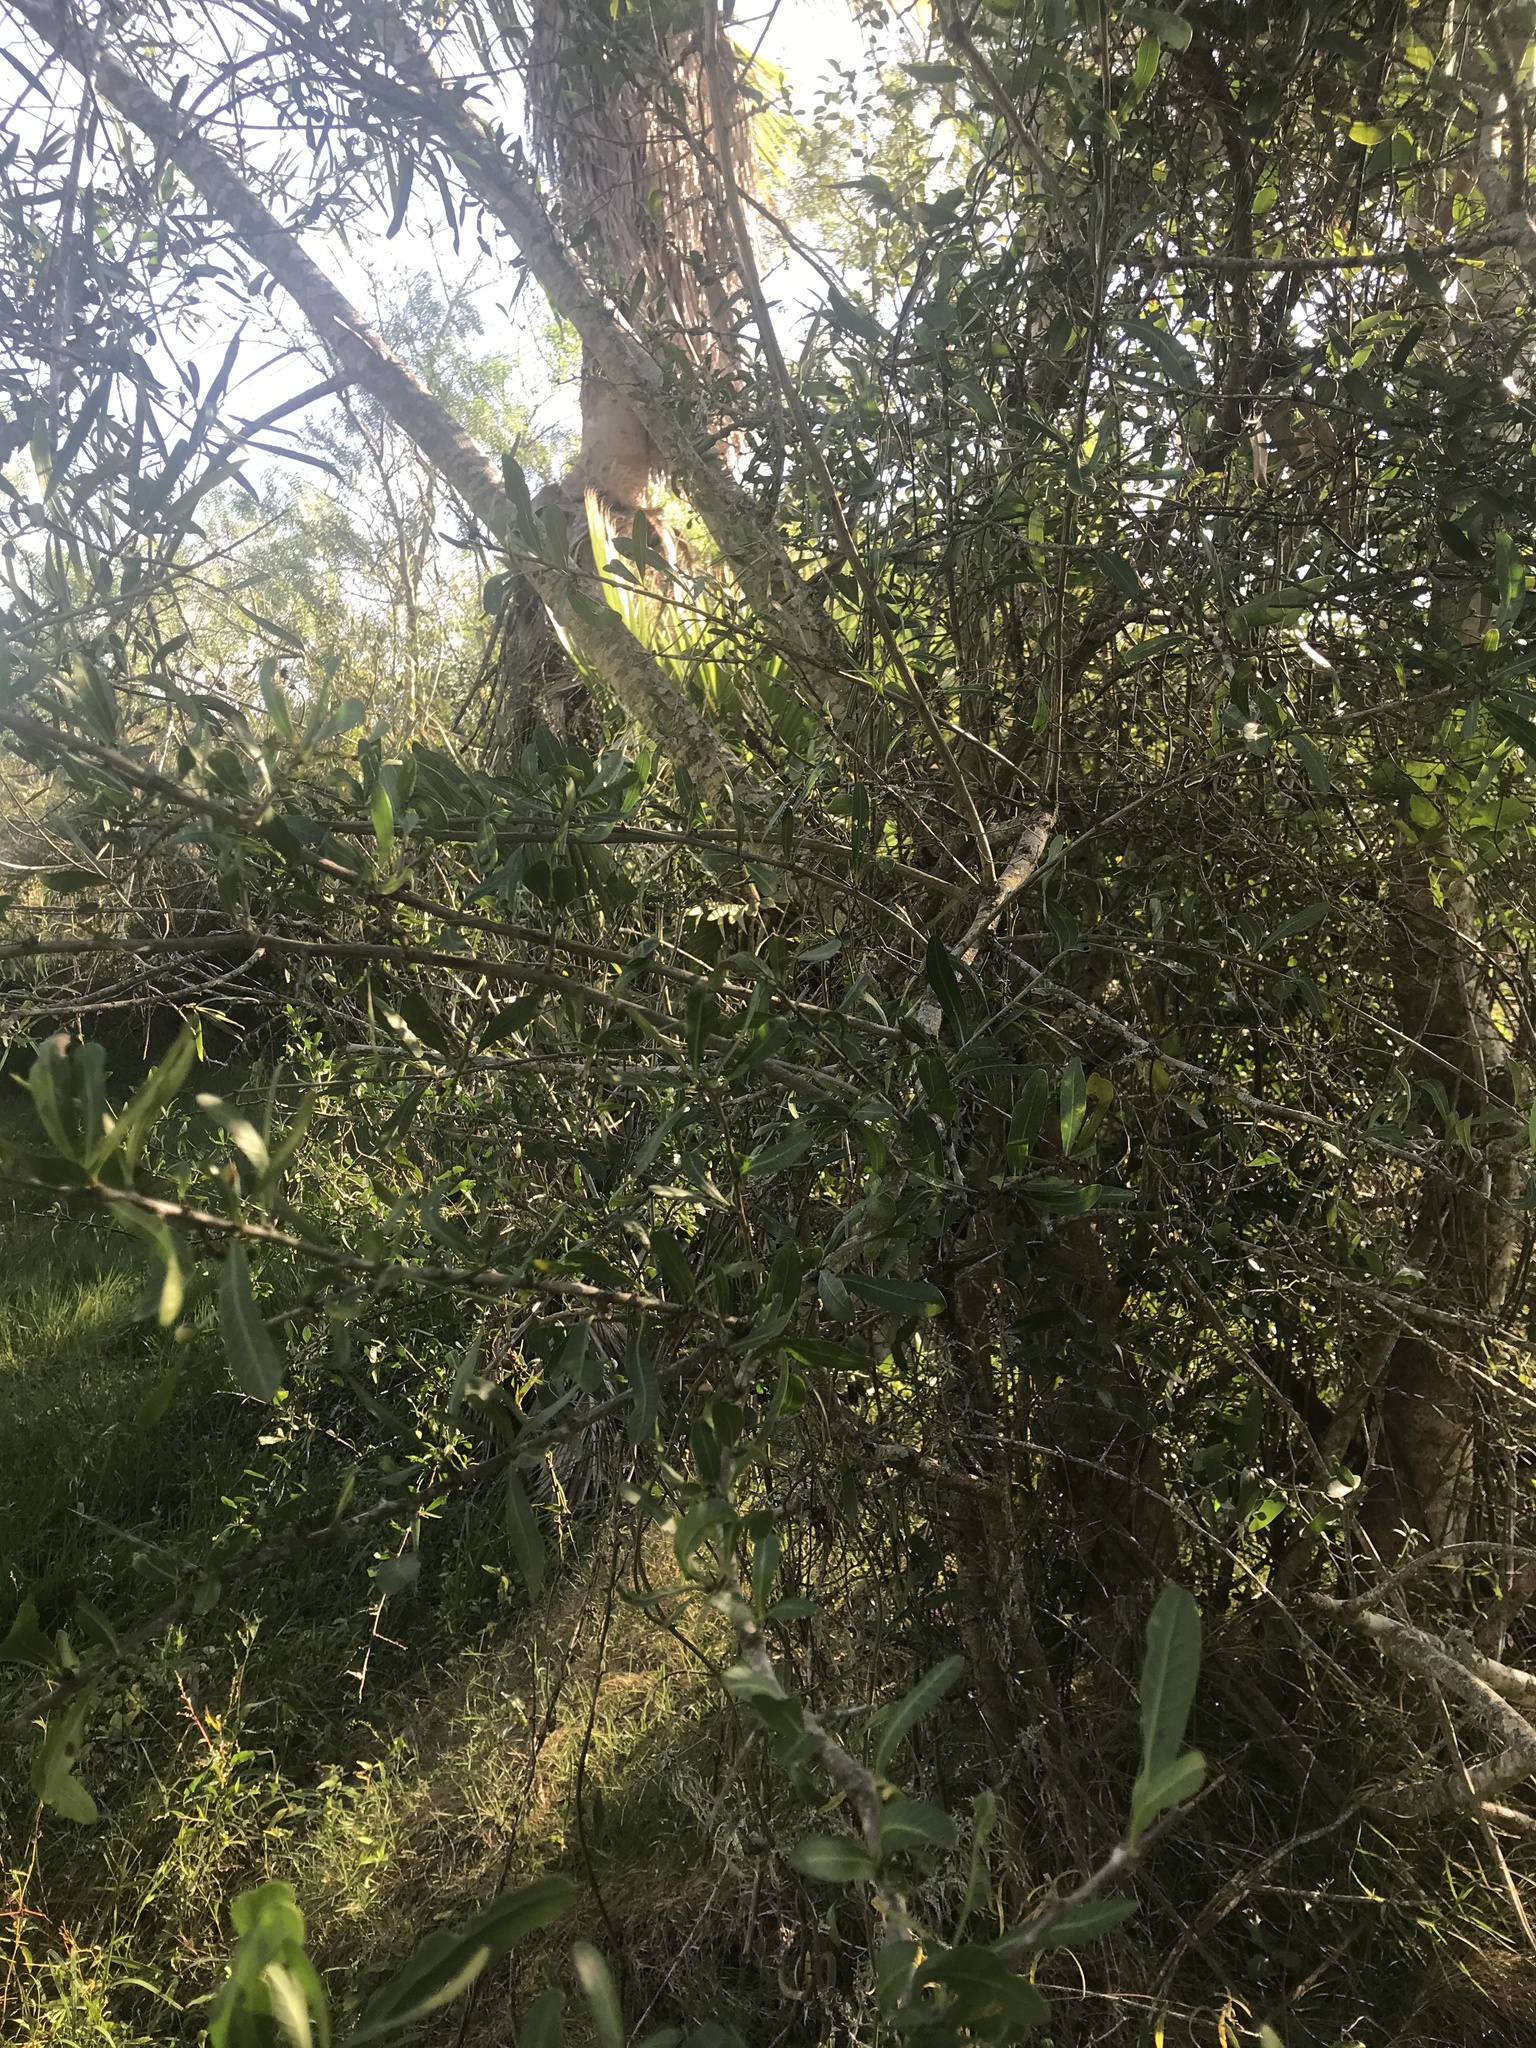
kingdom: Plantae
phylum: Tracheophyta
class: Magnoliopsida
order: Sapindales
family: Anacardiaceae
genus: Schinus
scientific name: Schinus longifolia
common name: Longleaf peppertree
